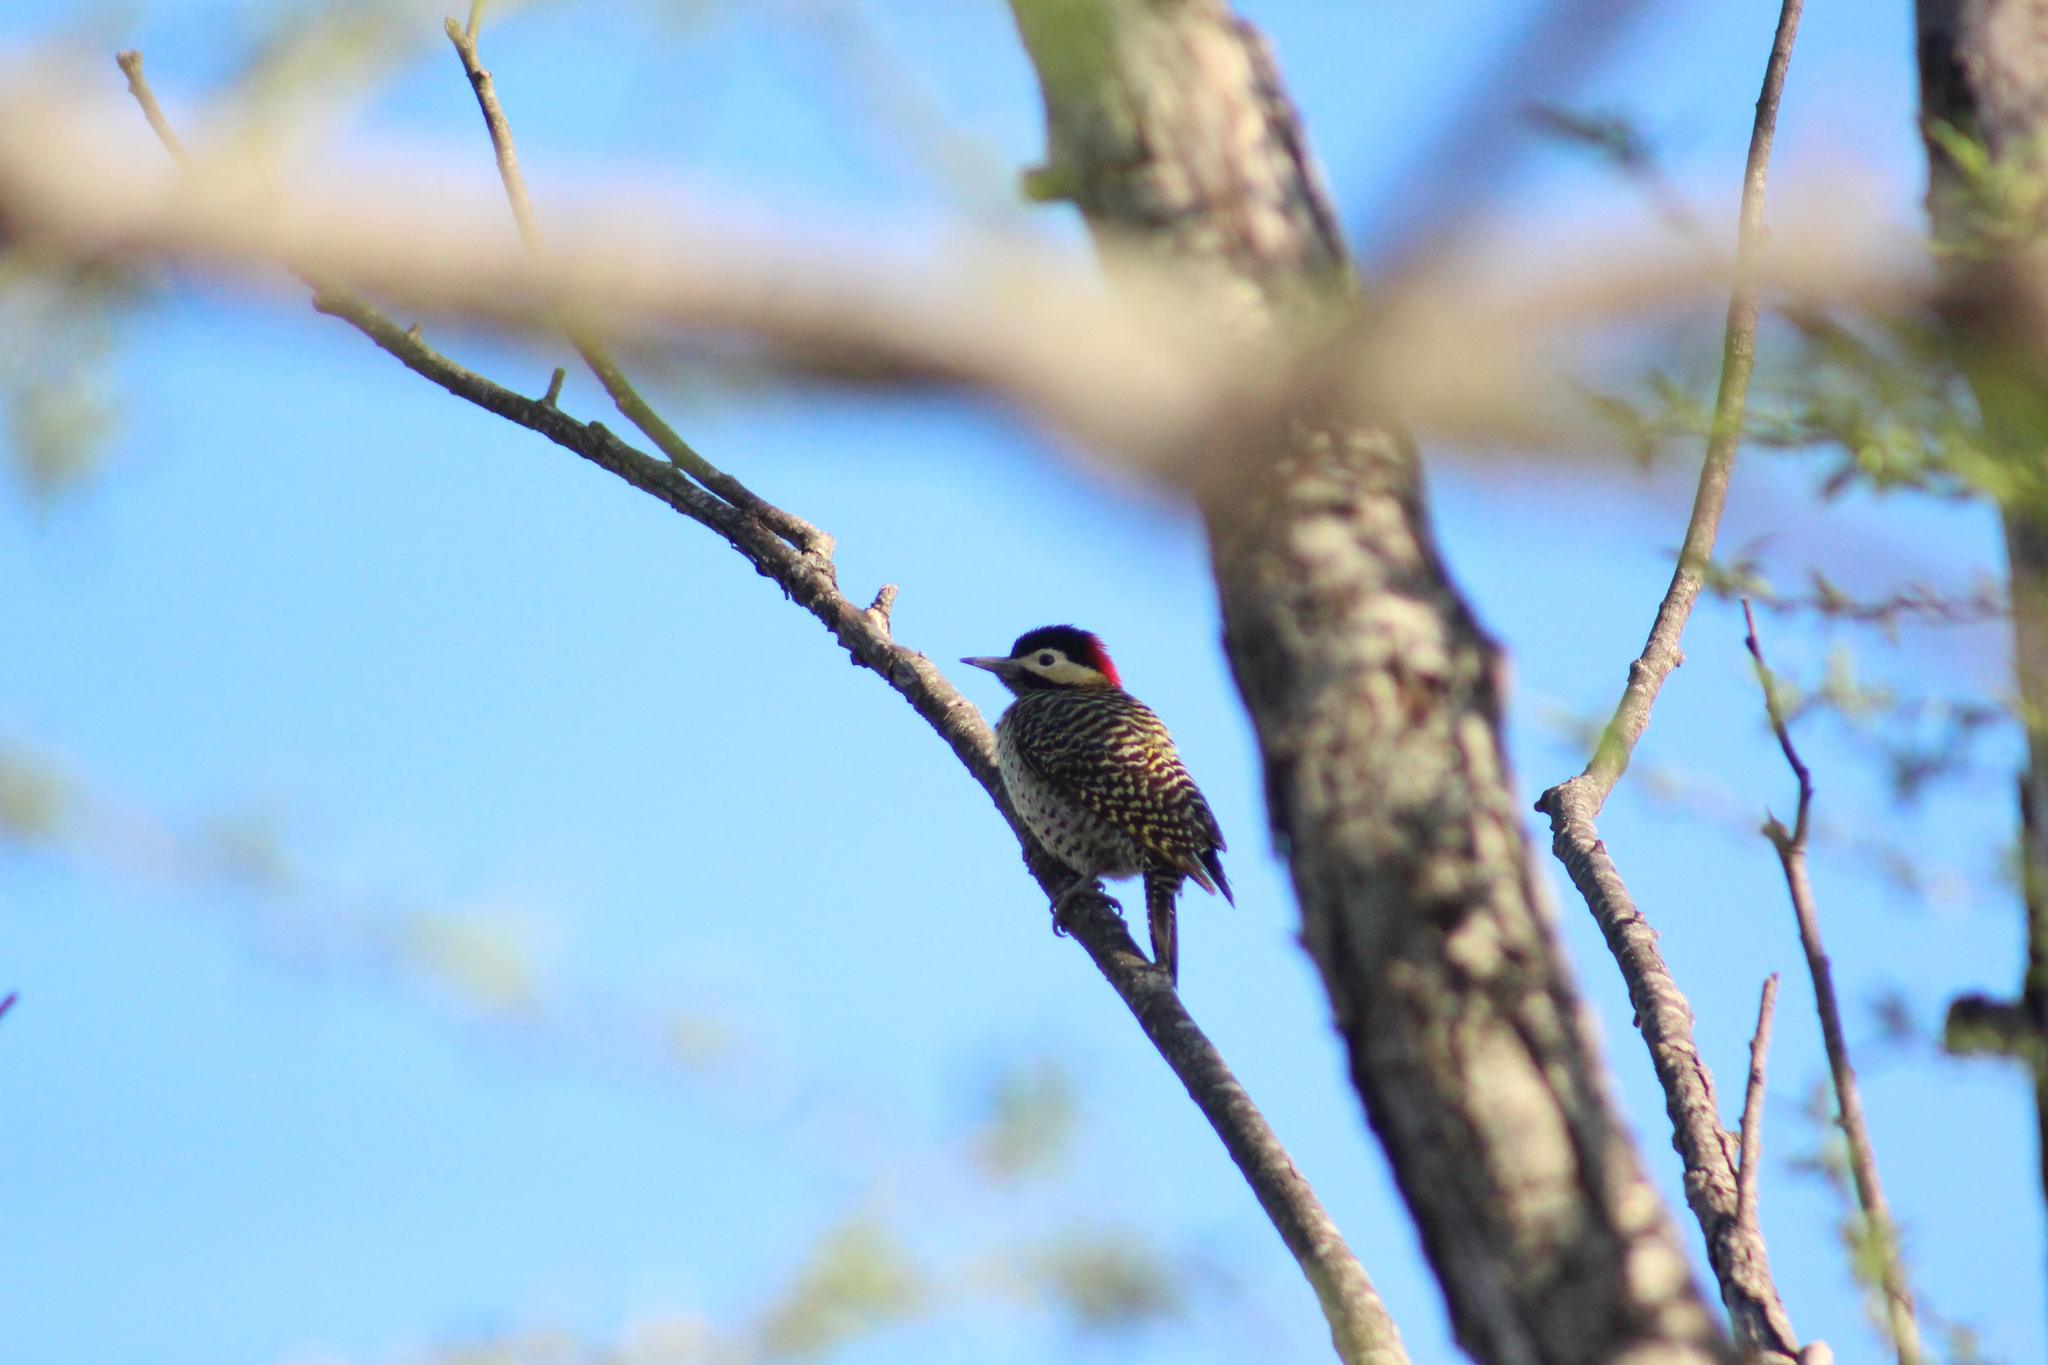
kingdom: Animalia
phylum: Chordata
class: Aves
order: Piciformes
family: Picidae
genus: Colaptes
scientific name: Colaptes melanochloros
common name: Green-barred woodpecker
